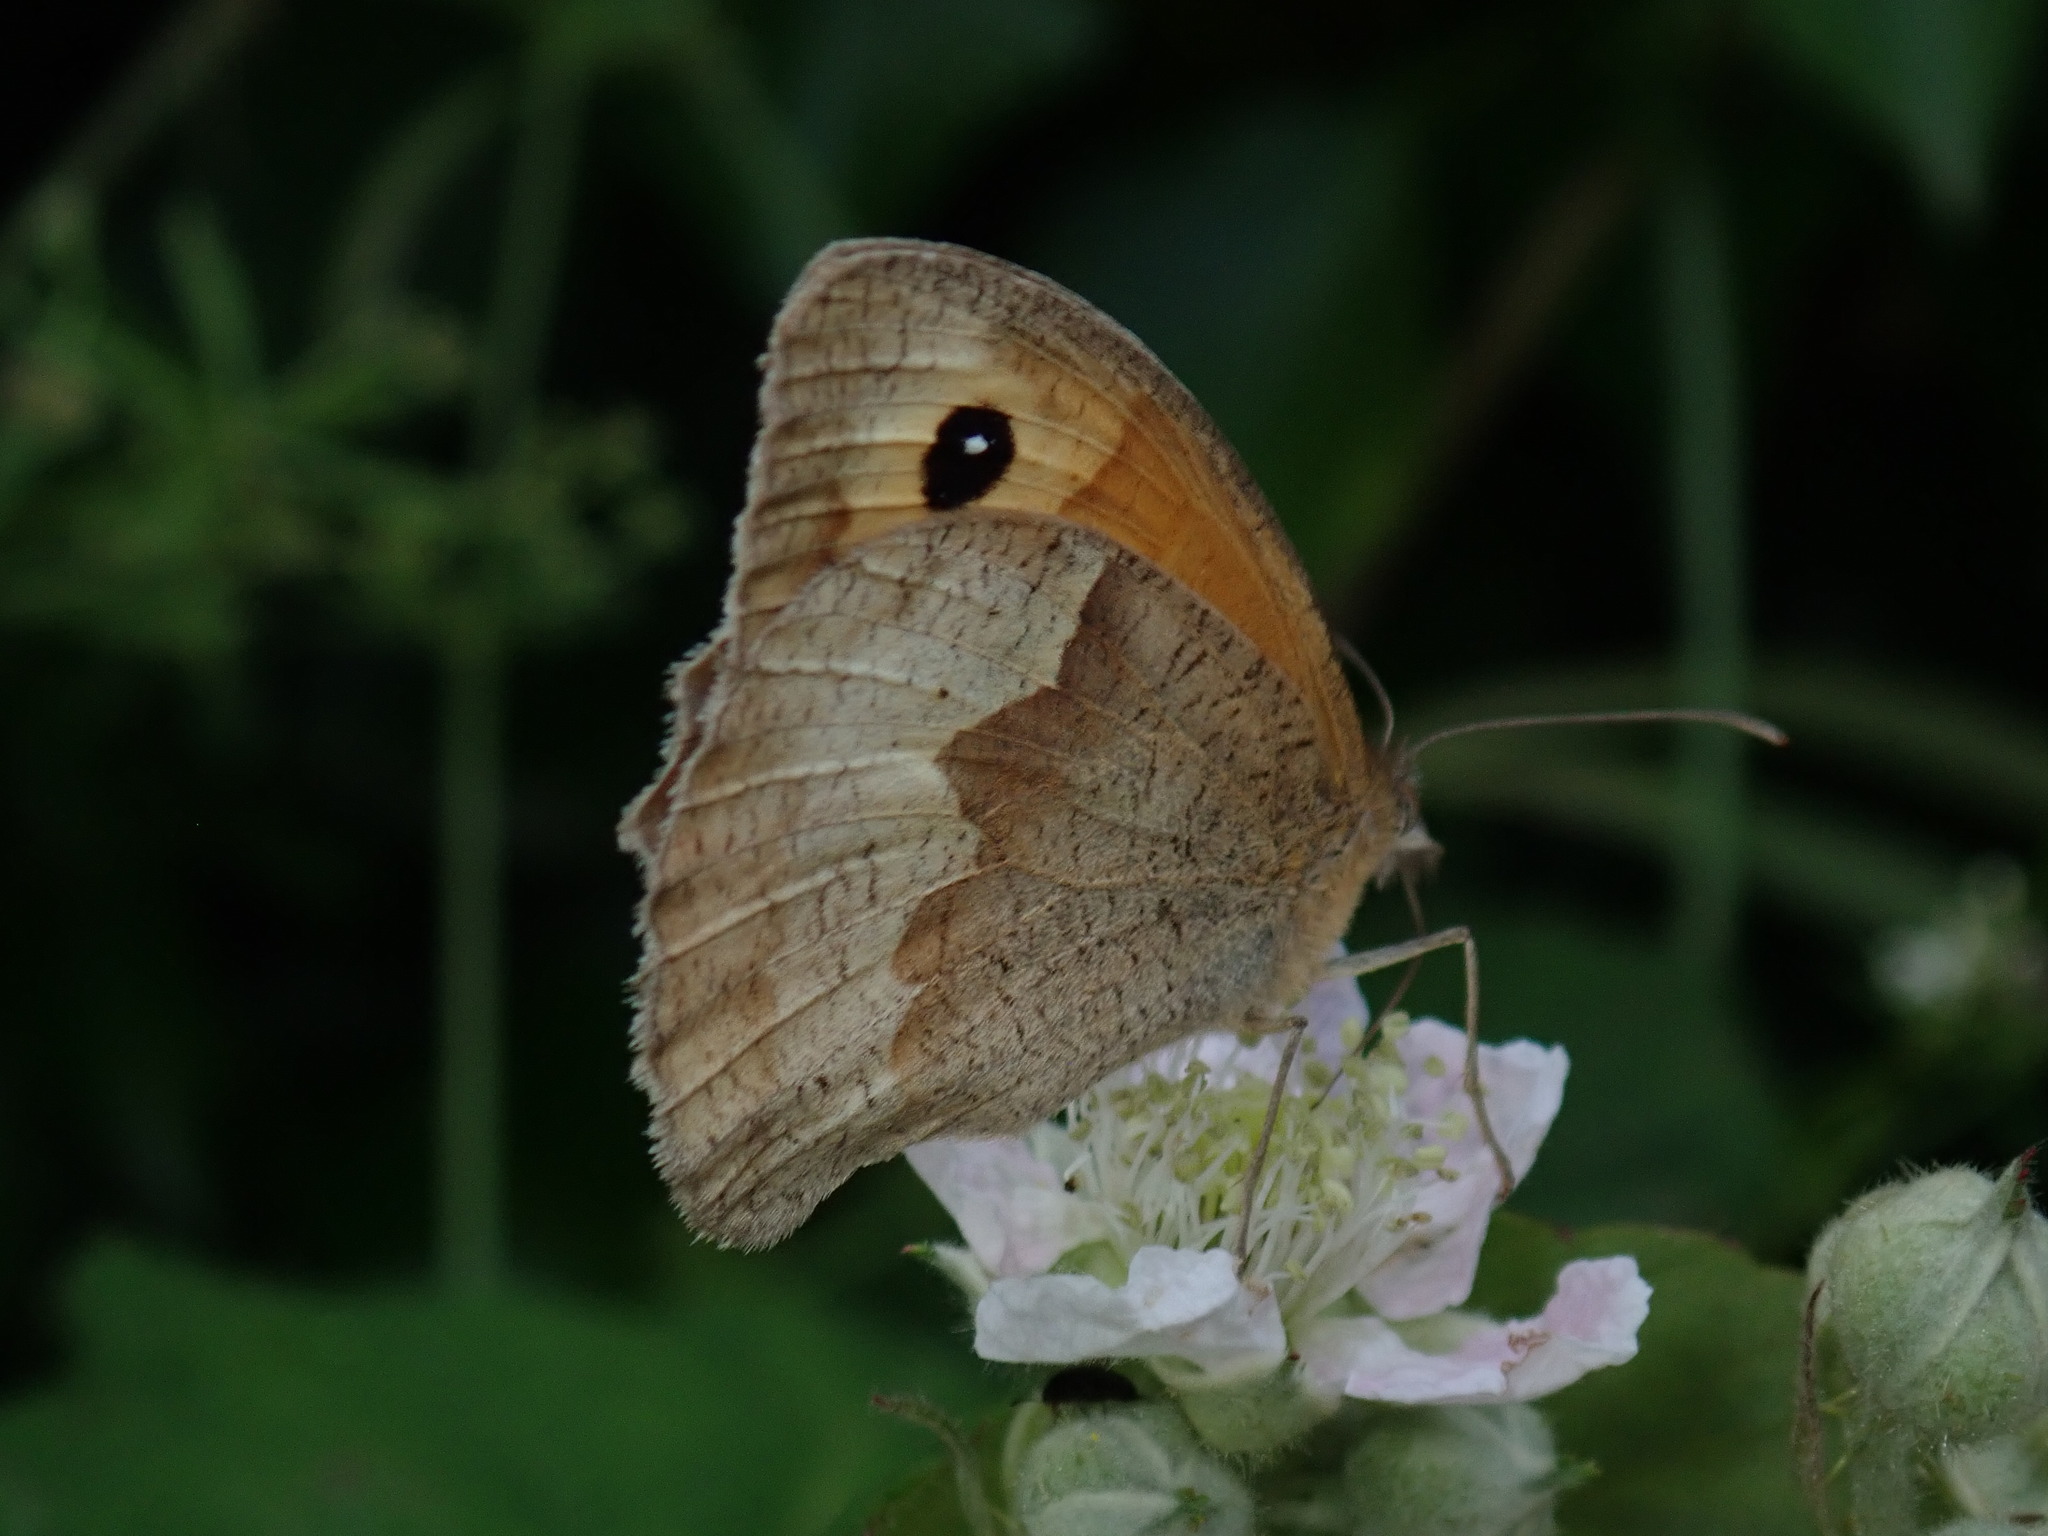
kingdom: Animalia
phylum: Arthropoda
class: Insecta
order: Lepidoptera
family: Nymphalidae
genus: Maniola
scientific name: Maniola jurtina
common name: Meadow brown
